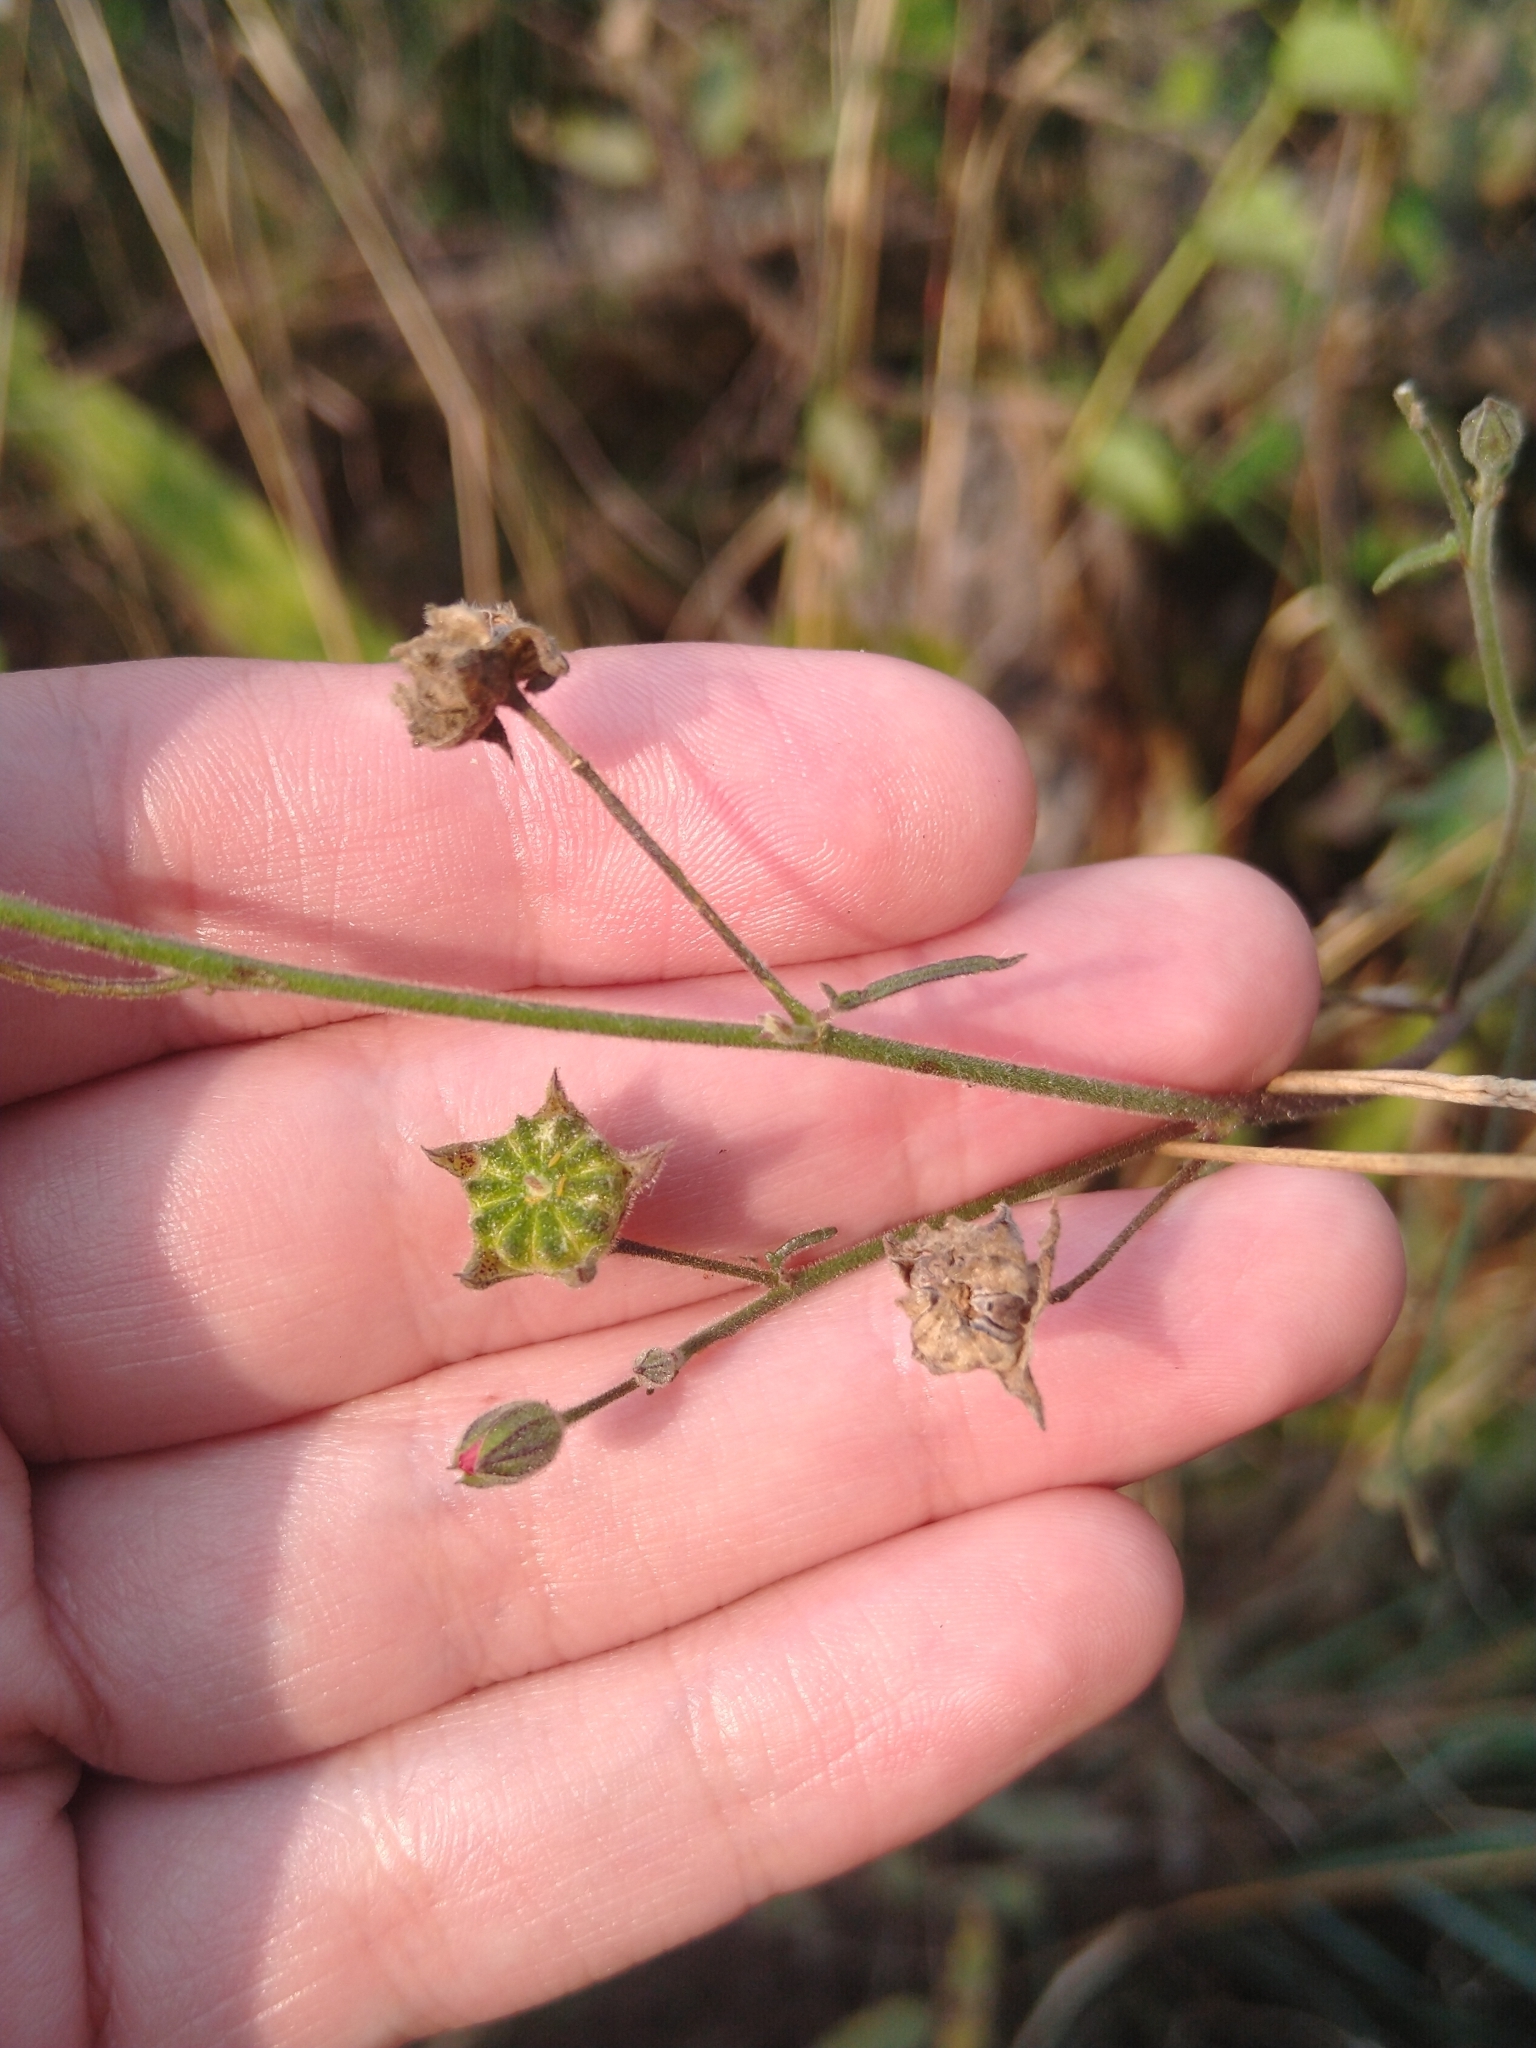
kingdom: Plantae
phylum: Tracheophyta
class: Magnoliopsida
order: Malvales
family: Malvaceae
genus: Periptera
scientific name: Periptera punicea
